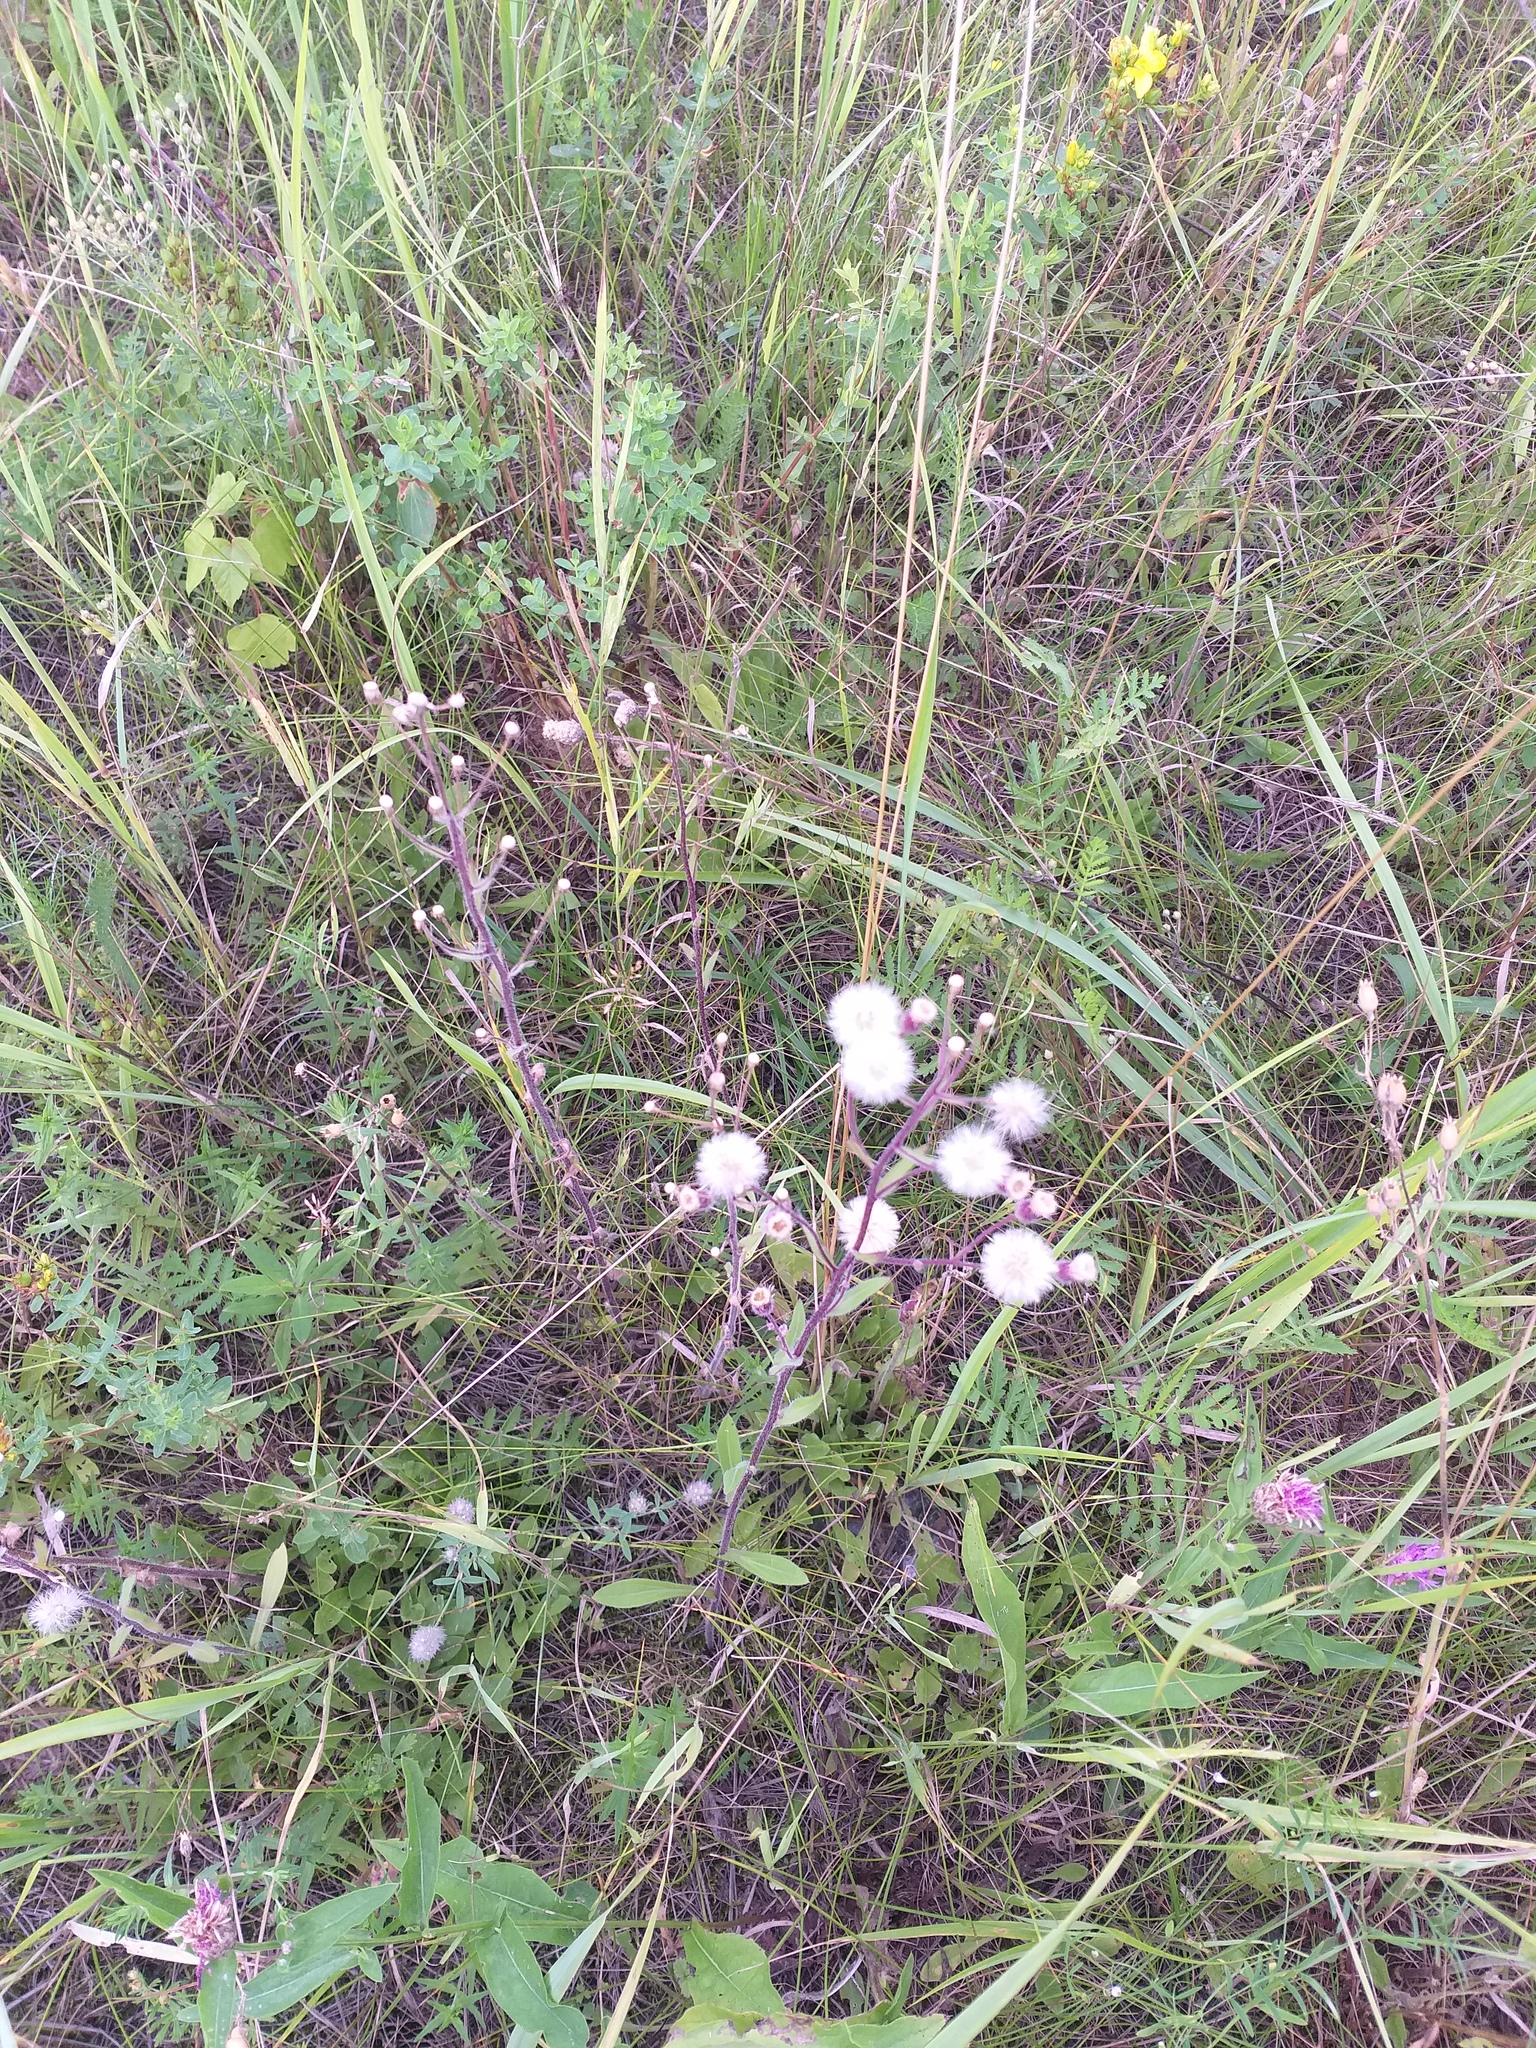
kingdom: Plantae
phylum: Tracheophyta
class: Magnoliopsida
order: Asterales
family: Asteraceae
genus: Erigeron
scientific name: Erigeron acris
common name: Blue fleabane
